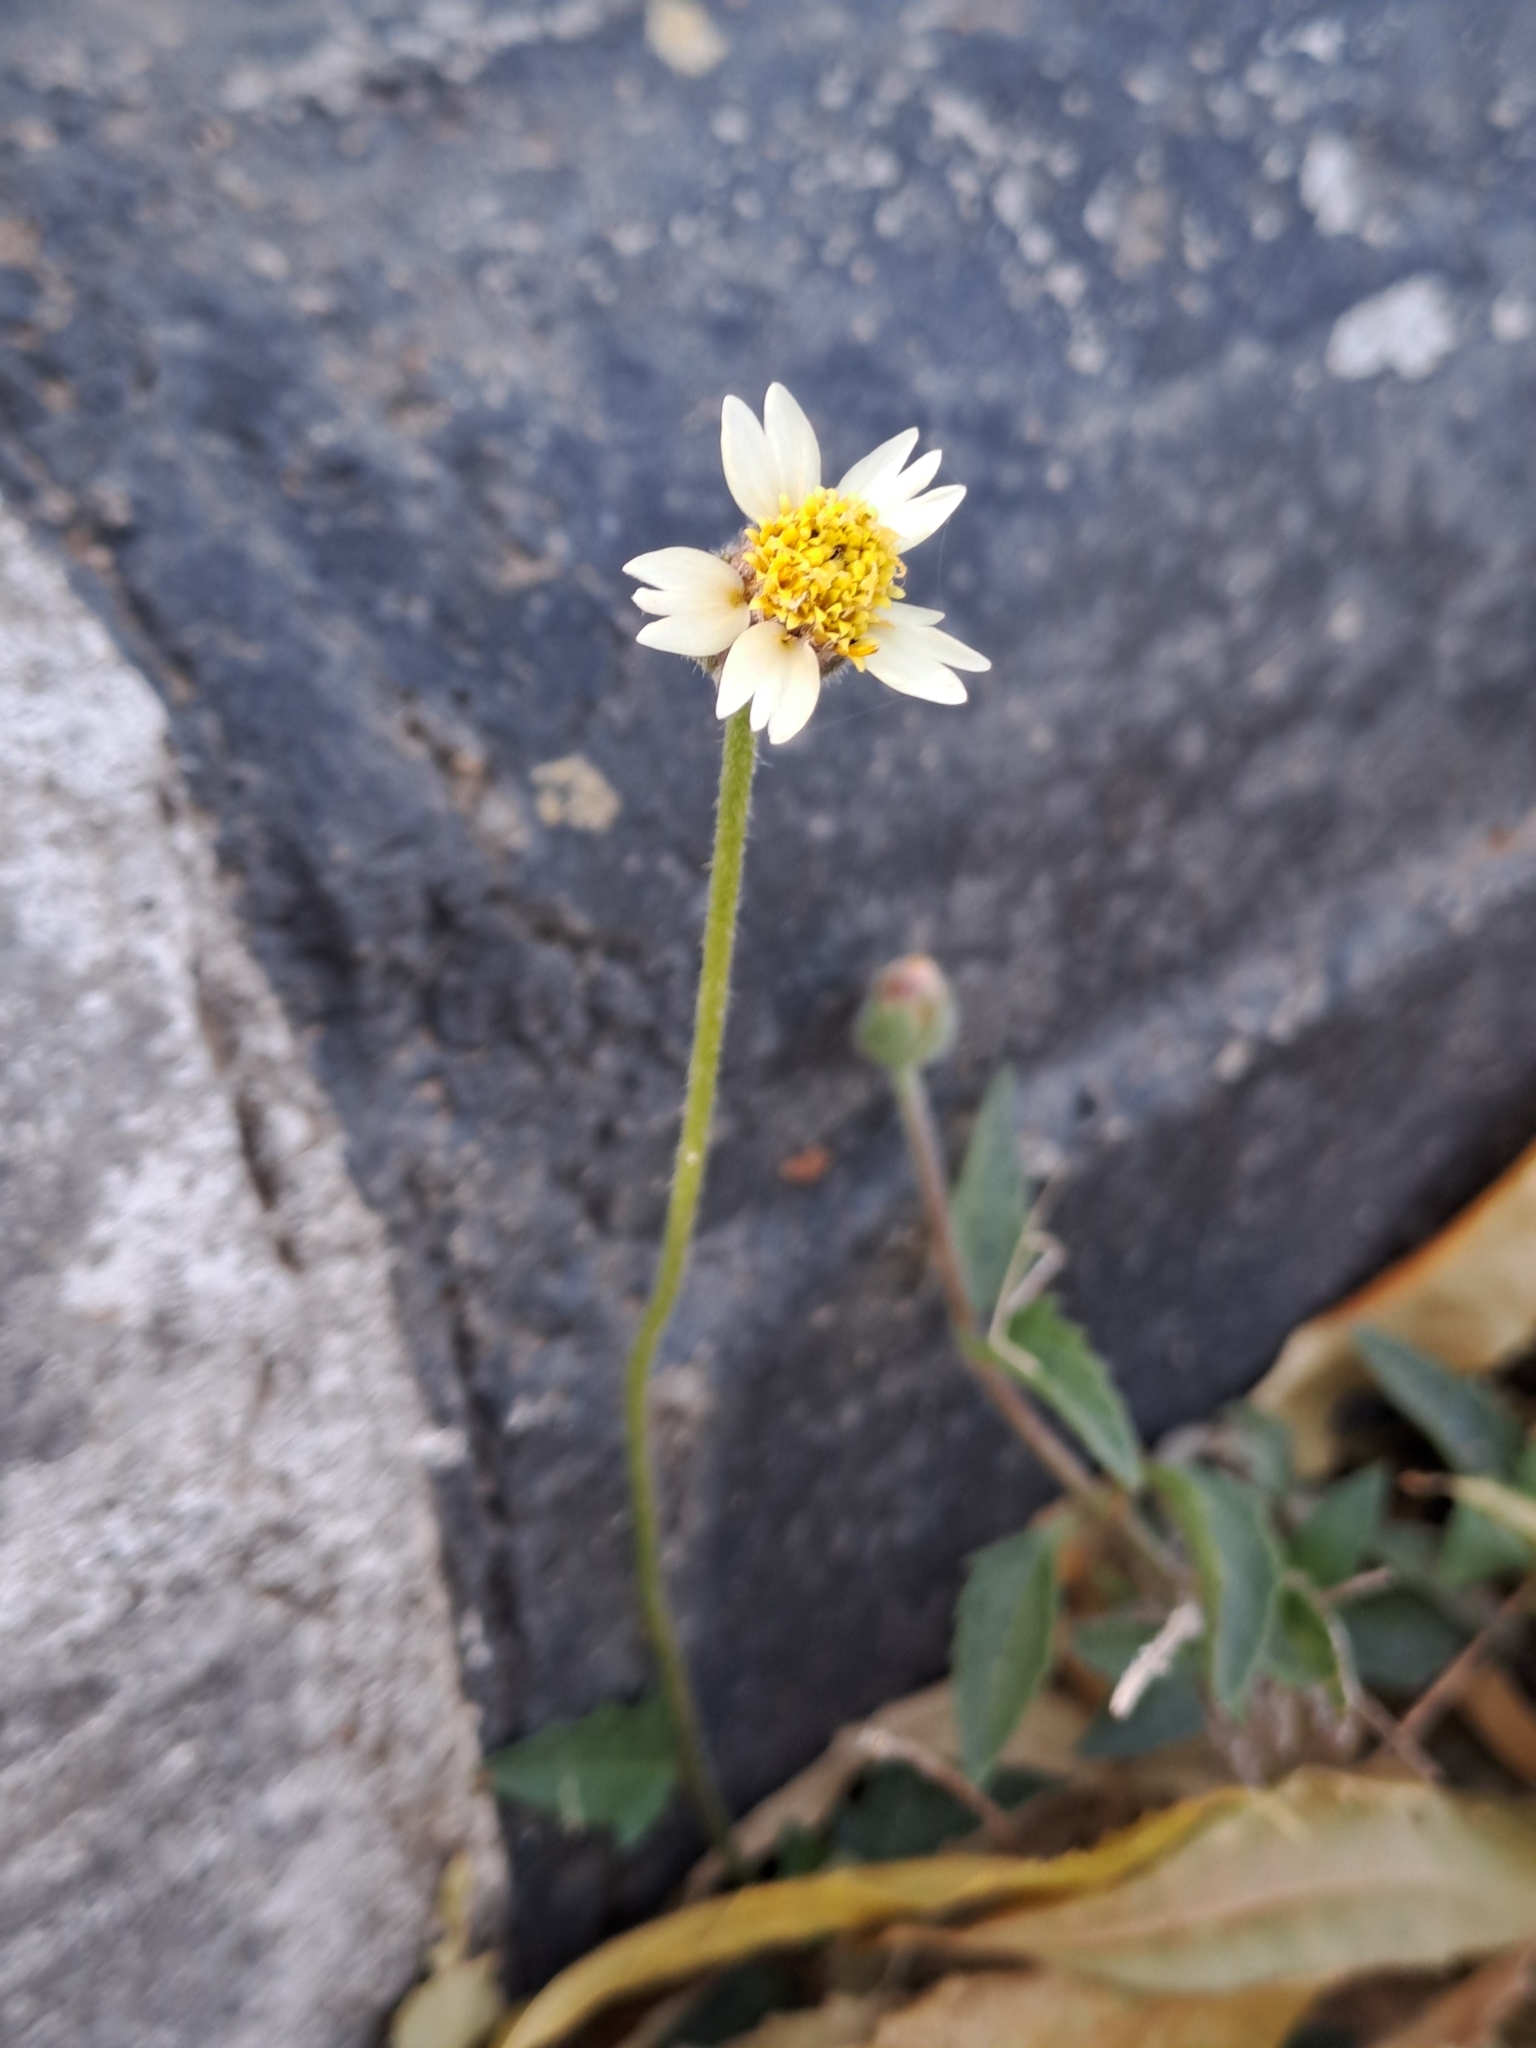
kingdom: Plantae
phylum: Tracheophyta
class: Magnoliopsida
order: Asterales
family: Asteraceae
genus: Tridax
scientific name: Tridax procumbens
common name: Coatbuttons
